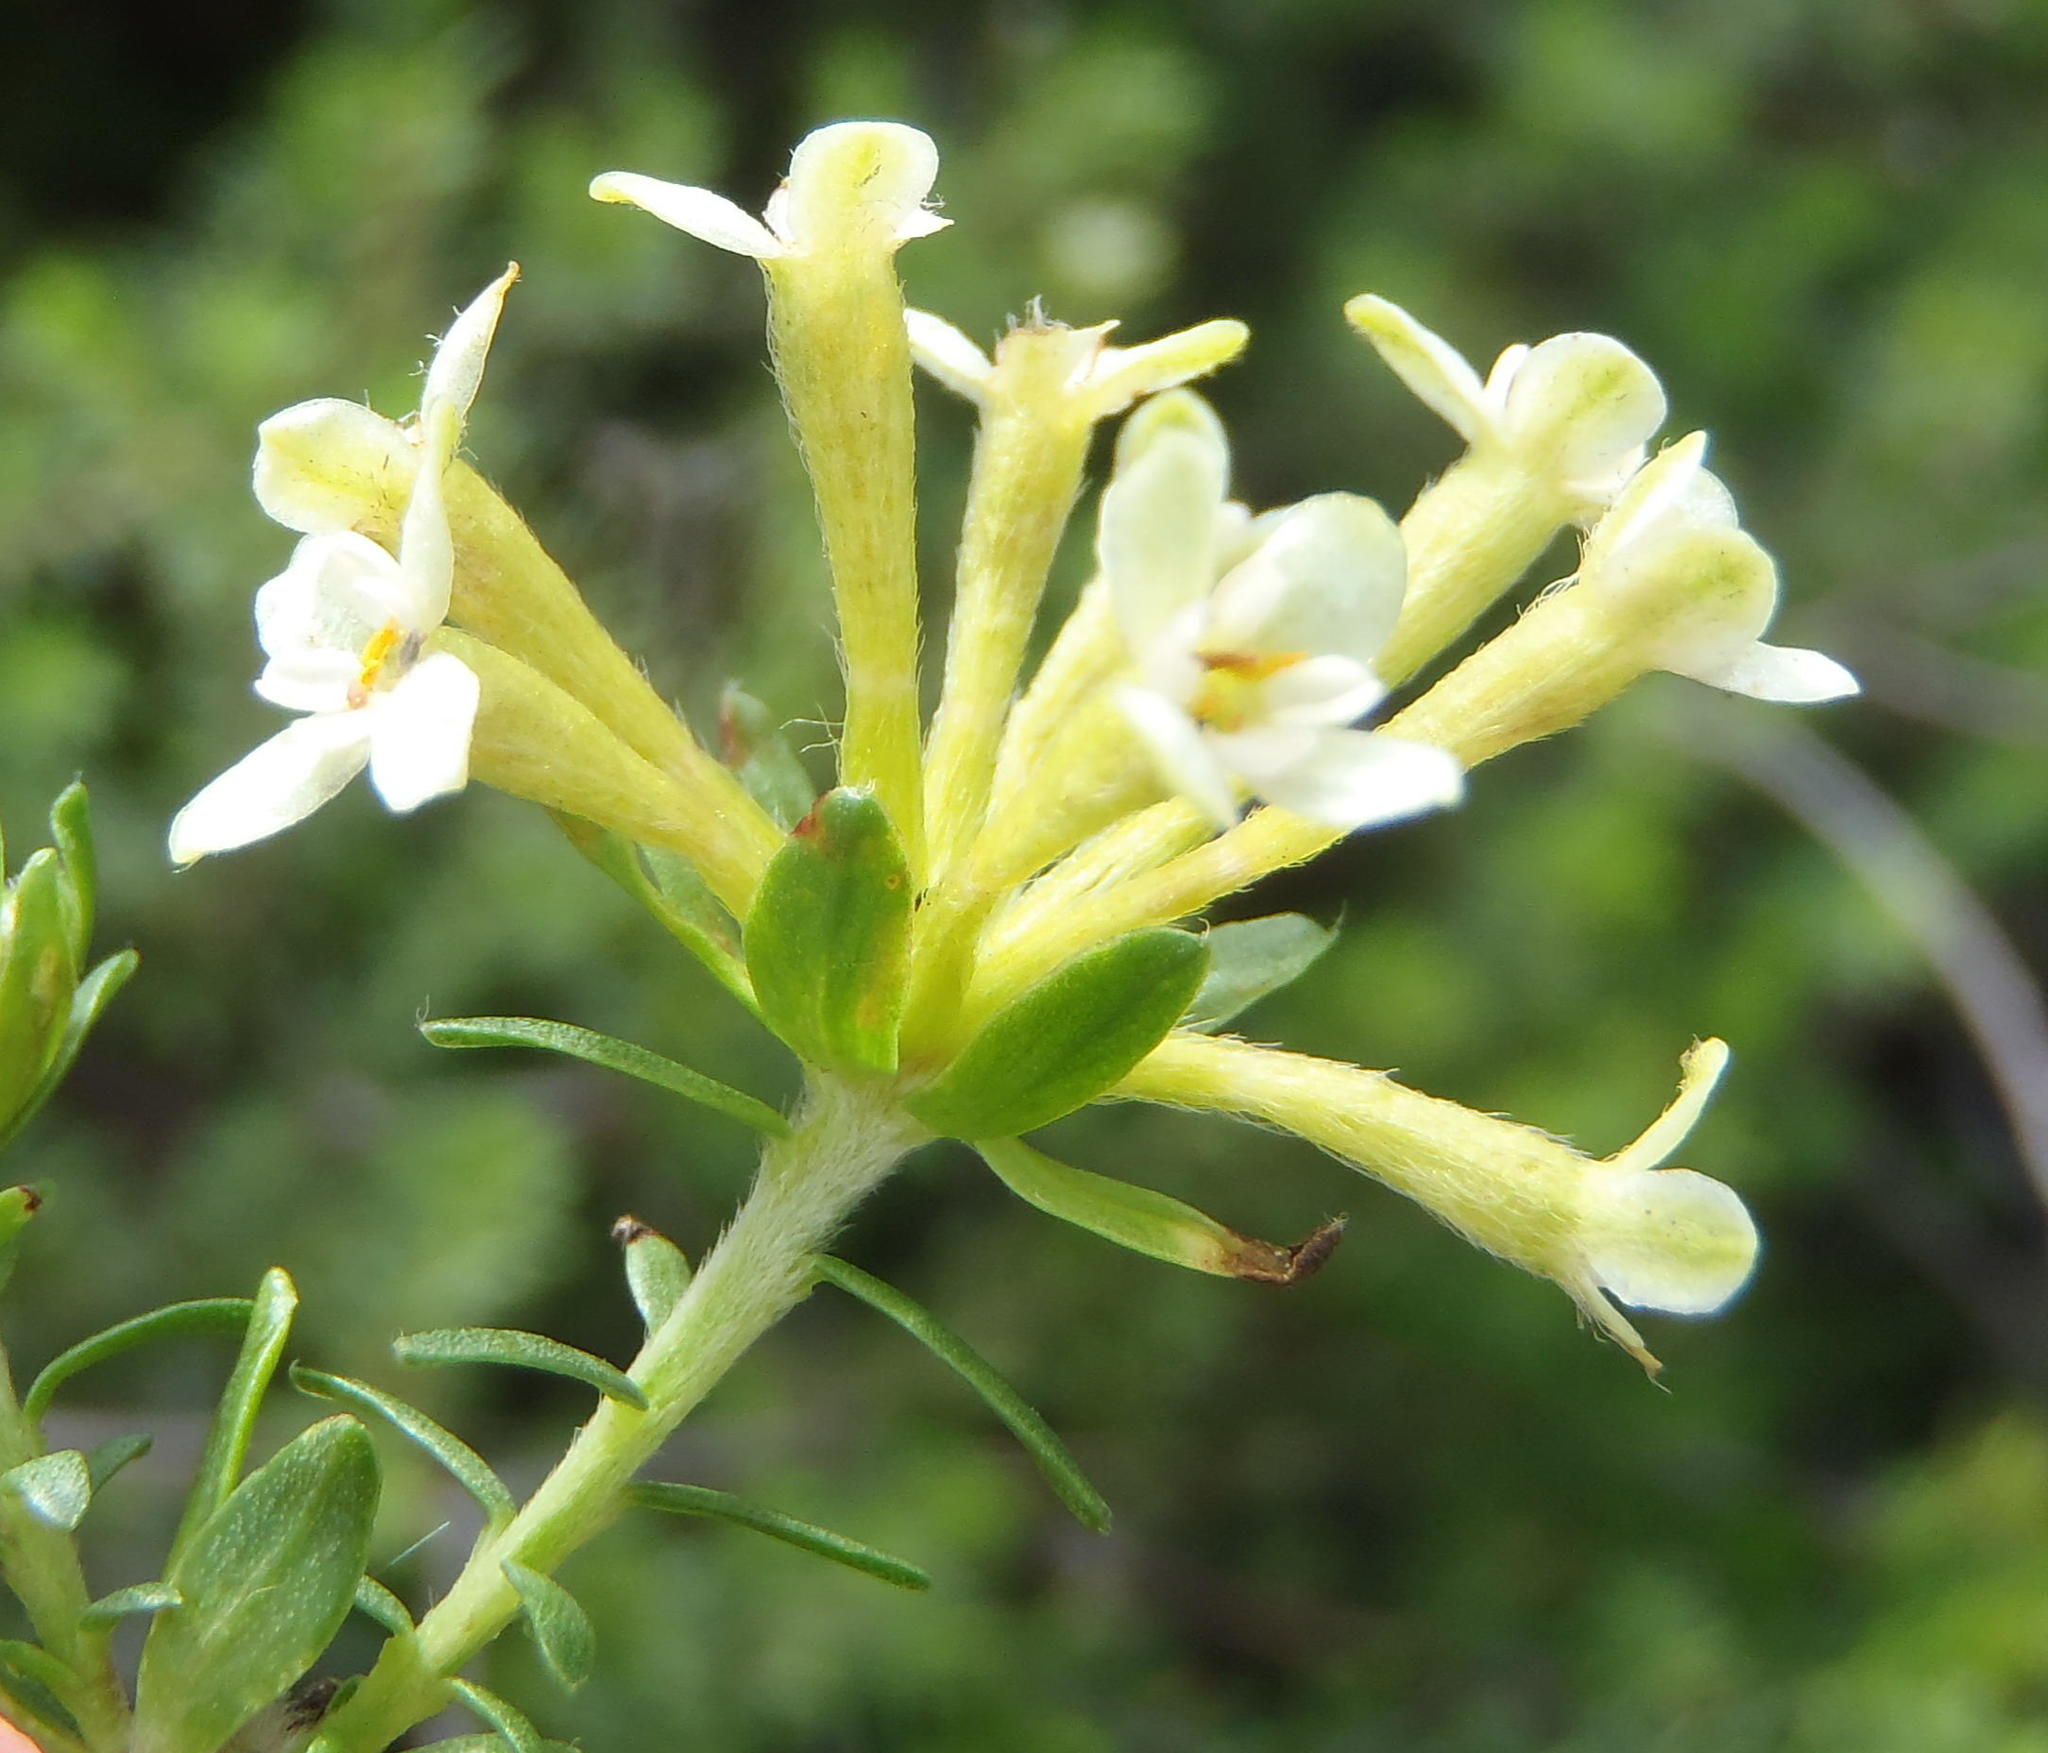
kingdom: Plantae
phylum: Tracheophyta
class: Magnoliopsida
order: Malvales
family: Thymelaeaceae
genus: Gnidia
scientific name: Gnidia squarrosa
